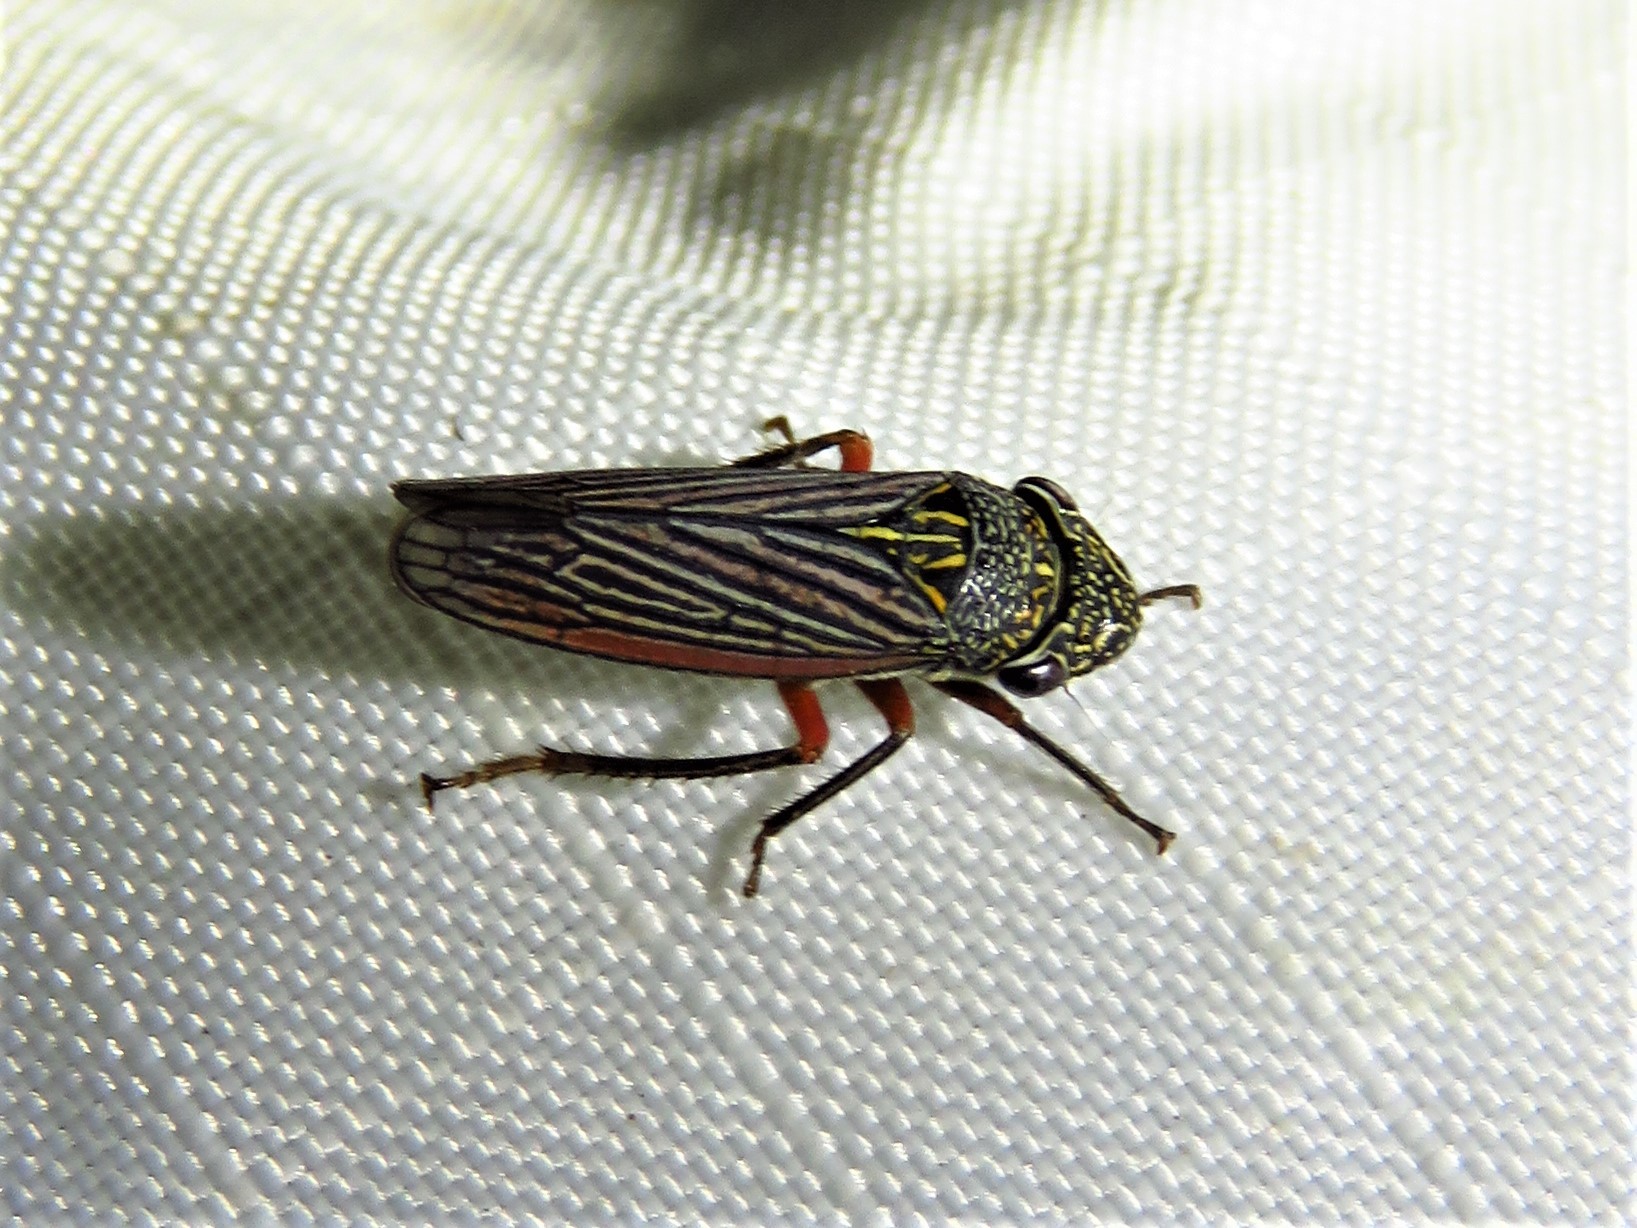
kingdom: Animalia
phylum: Arthropoda
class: Insecta
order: Hemiptera
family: Cicadellidae
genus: Cuerna
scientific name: Cuerna costalis
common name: Lateral-lined sharpshooter
